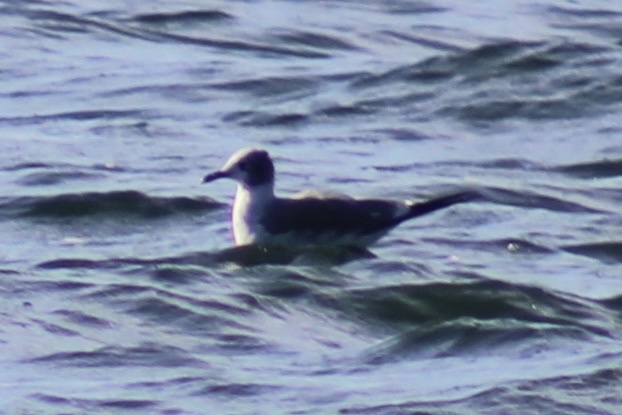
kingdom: Animalia
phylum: Chordata
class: Aves
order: Charadriiformes
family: Laridae
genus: Leucophaeus
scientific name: Leucophaeus atricilla
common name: Laughing gull
